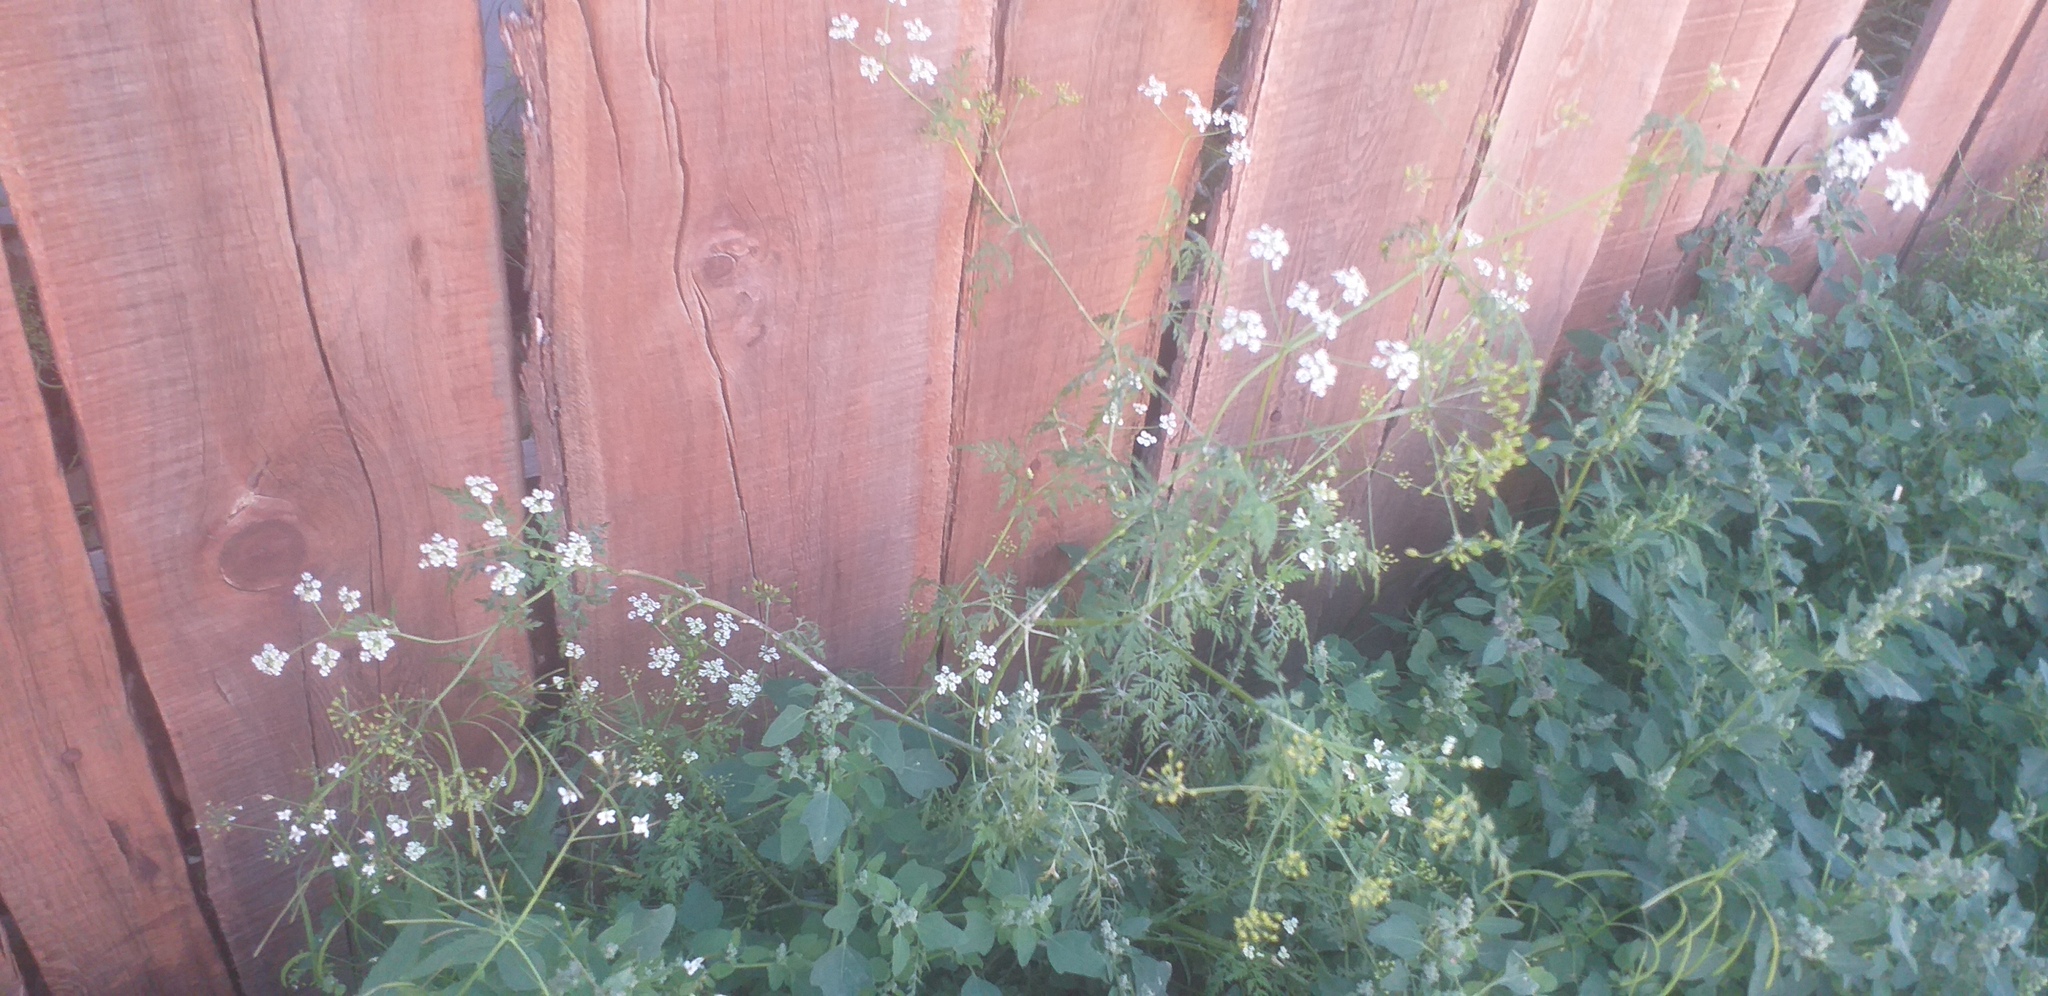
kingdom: Plantae
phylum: Tracheophyta
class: Magnoliopsida
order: Apiales
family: Apiaceae
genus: Sphallerocarpus
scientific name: Sphallerocarpus gracilis
